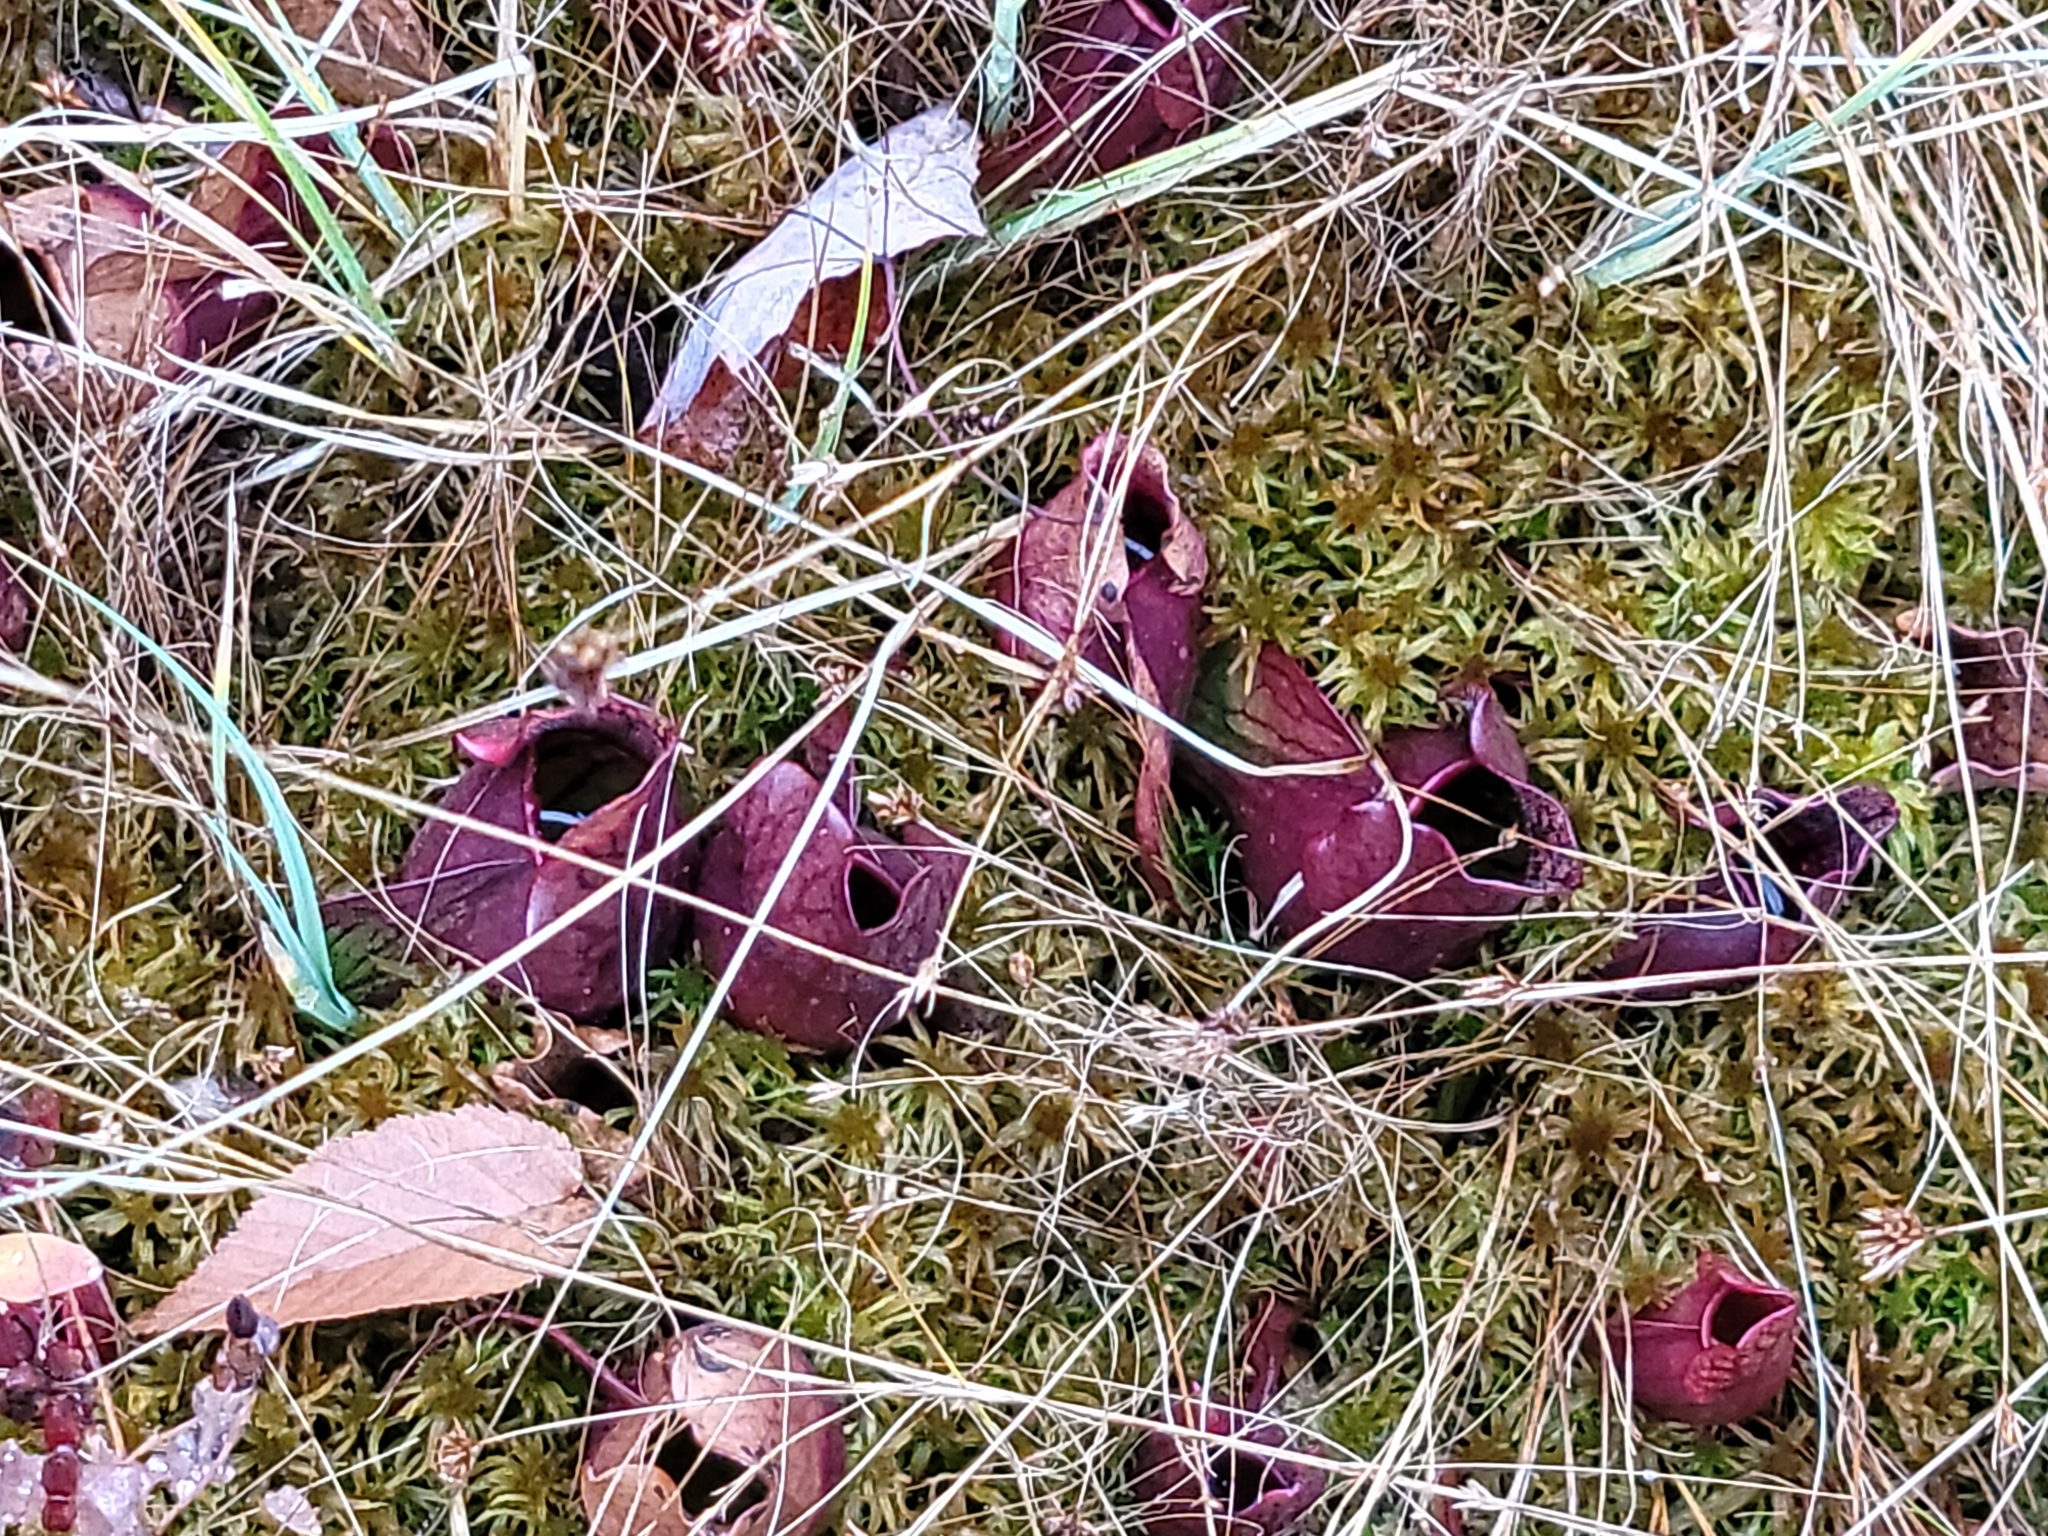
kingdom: Plantae
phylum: Tracheophyta
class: Magnoliopsida
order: Ericales
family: Sarraceniaceae
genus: Sarracenia
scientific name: Sarracenia purpurea
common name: Pitcherplant
